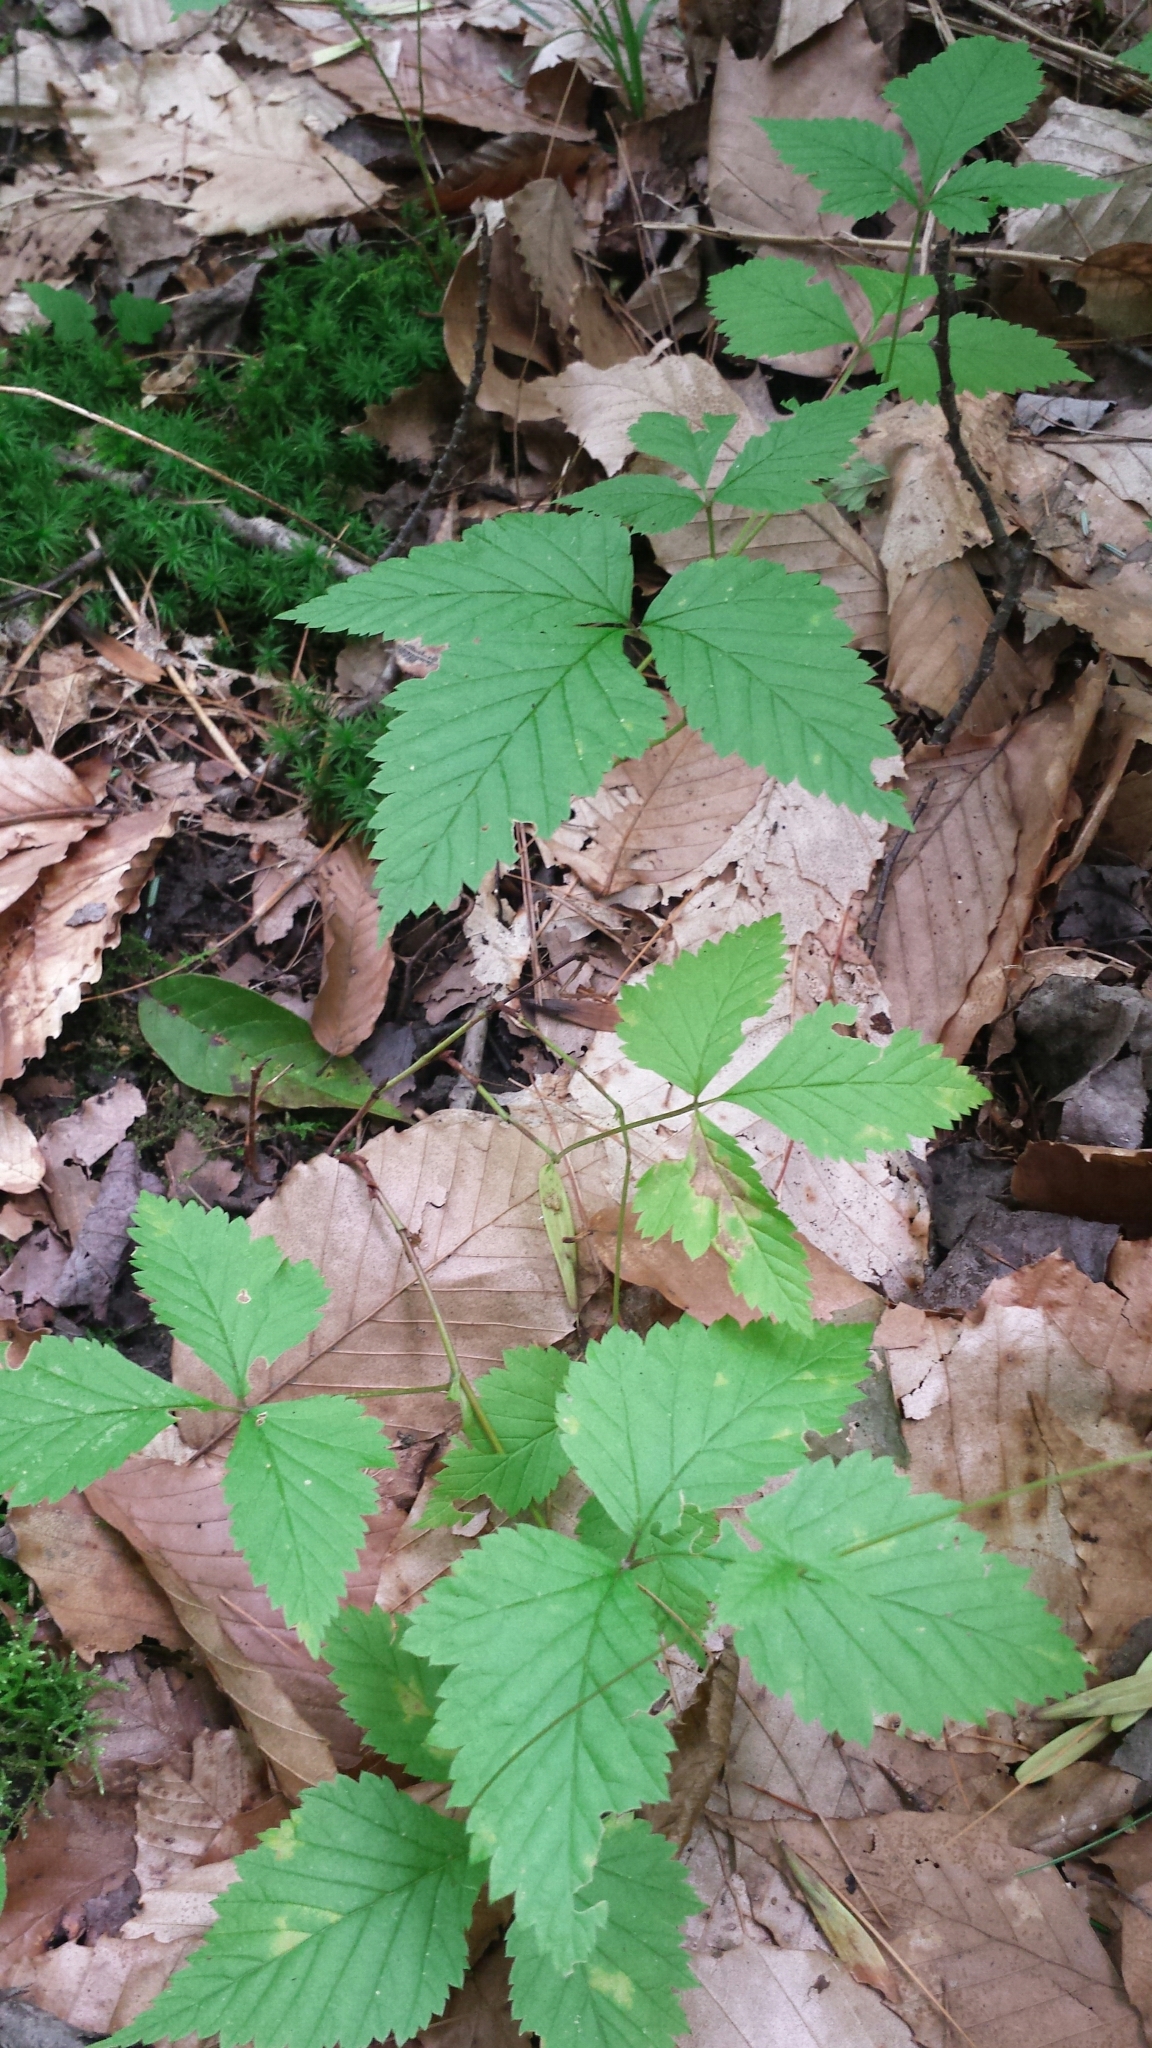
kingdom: Plantae
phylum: Tracheophyta
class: Magnoliopsida
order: Rosales
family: Rosaceae
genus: Rubus
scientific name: Rubus pubescens
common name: Dwarf raspberry
